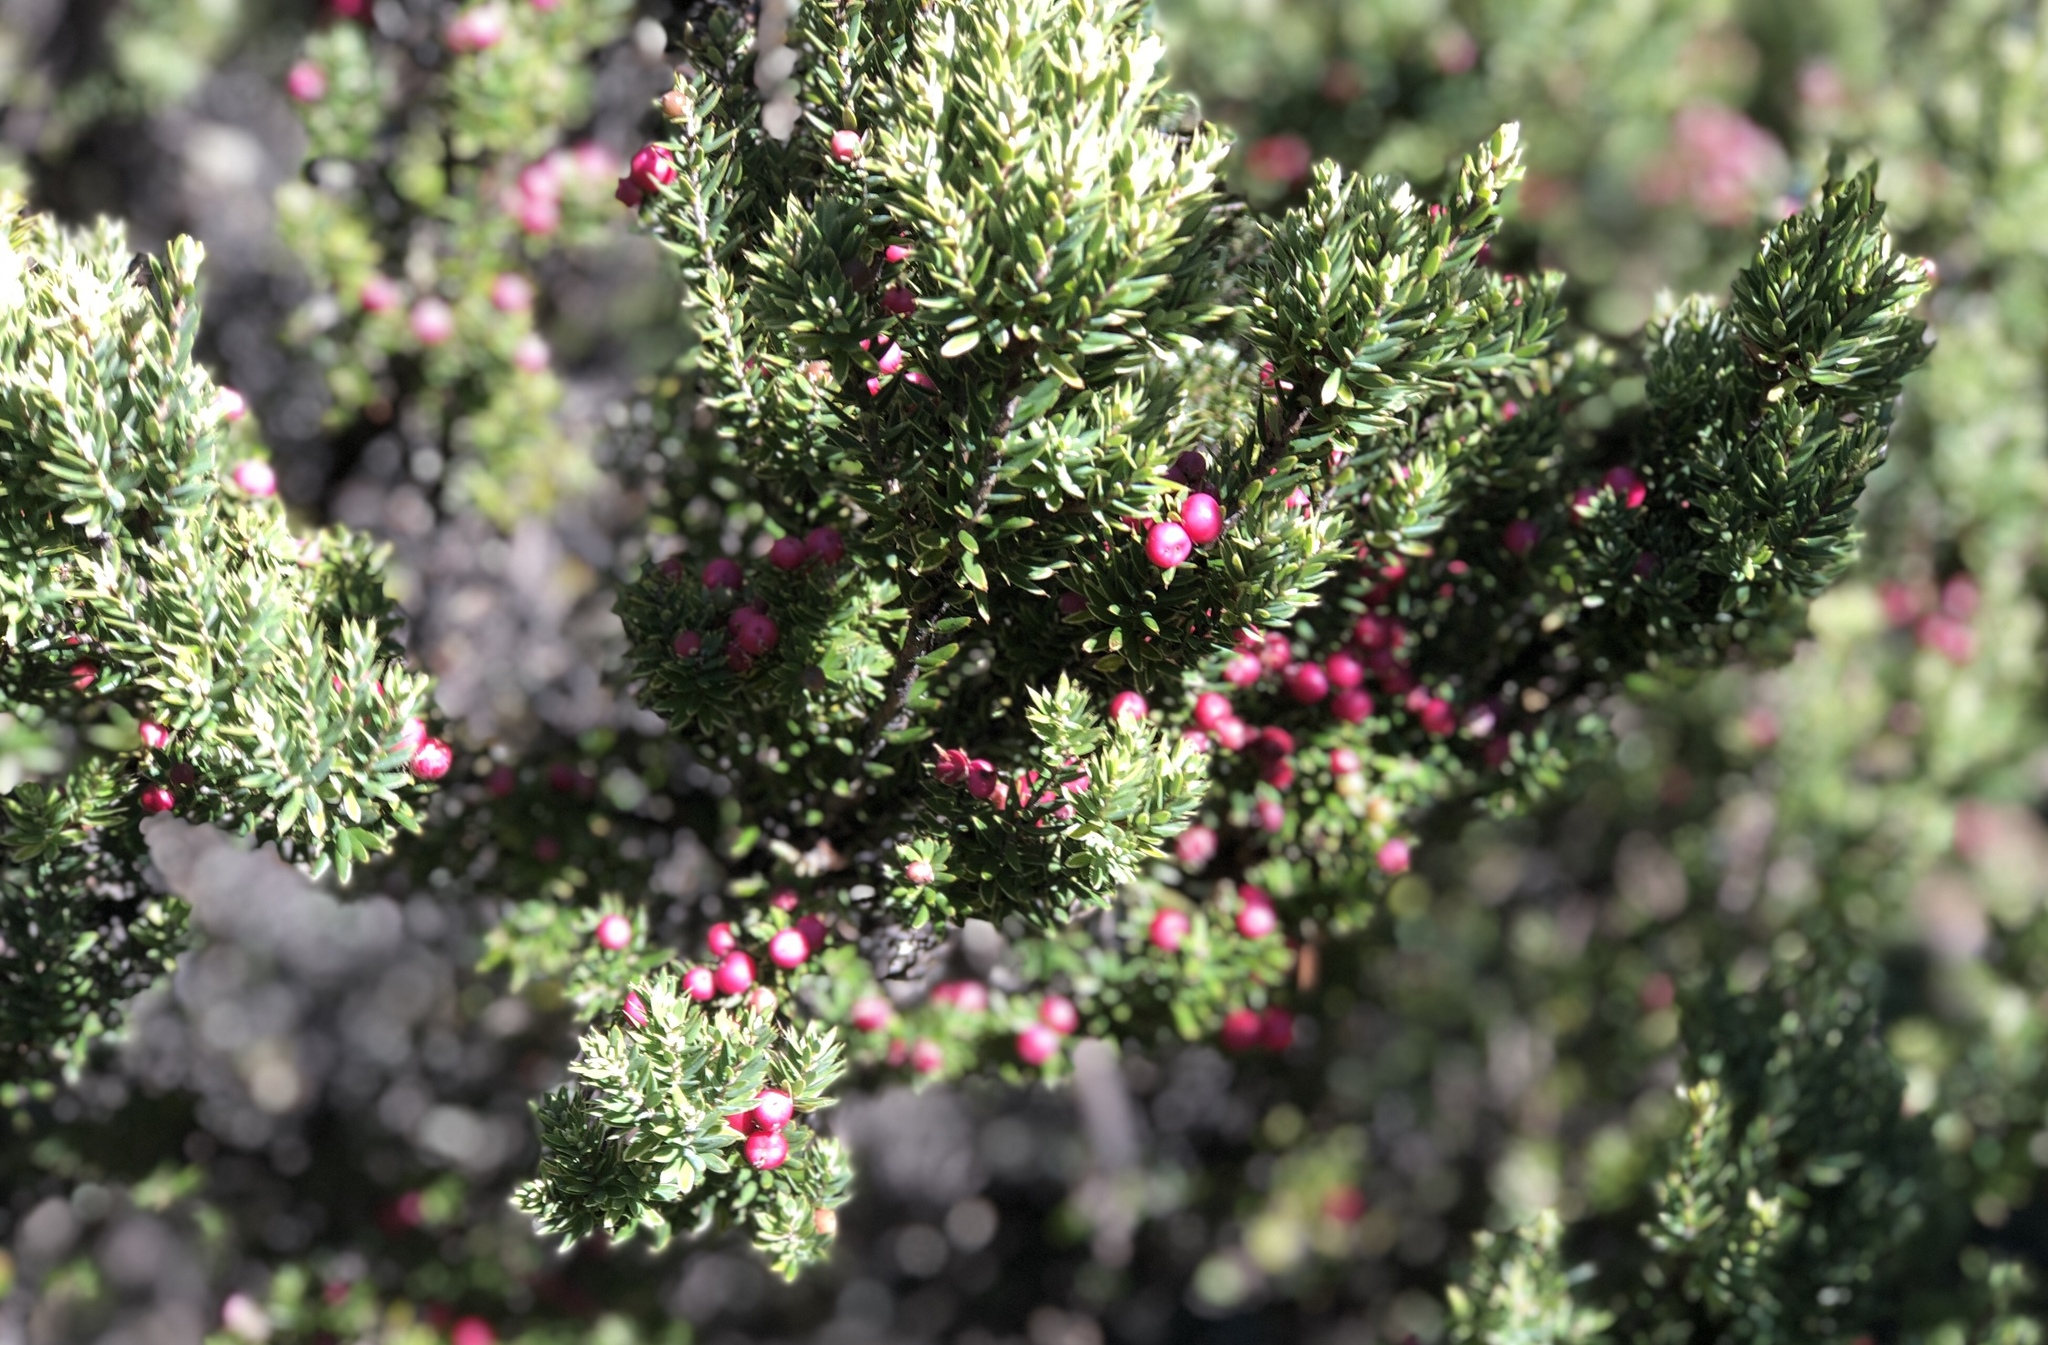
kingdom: Plantae
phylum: Tracheophyta
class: Magnoliopsida
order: Ericales
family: Ericaceae
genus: Leptecophylla
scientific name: Leptecophylla tameiameiae
